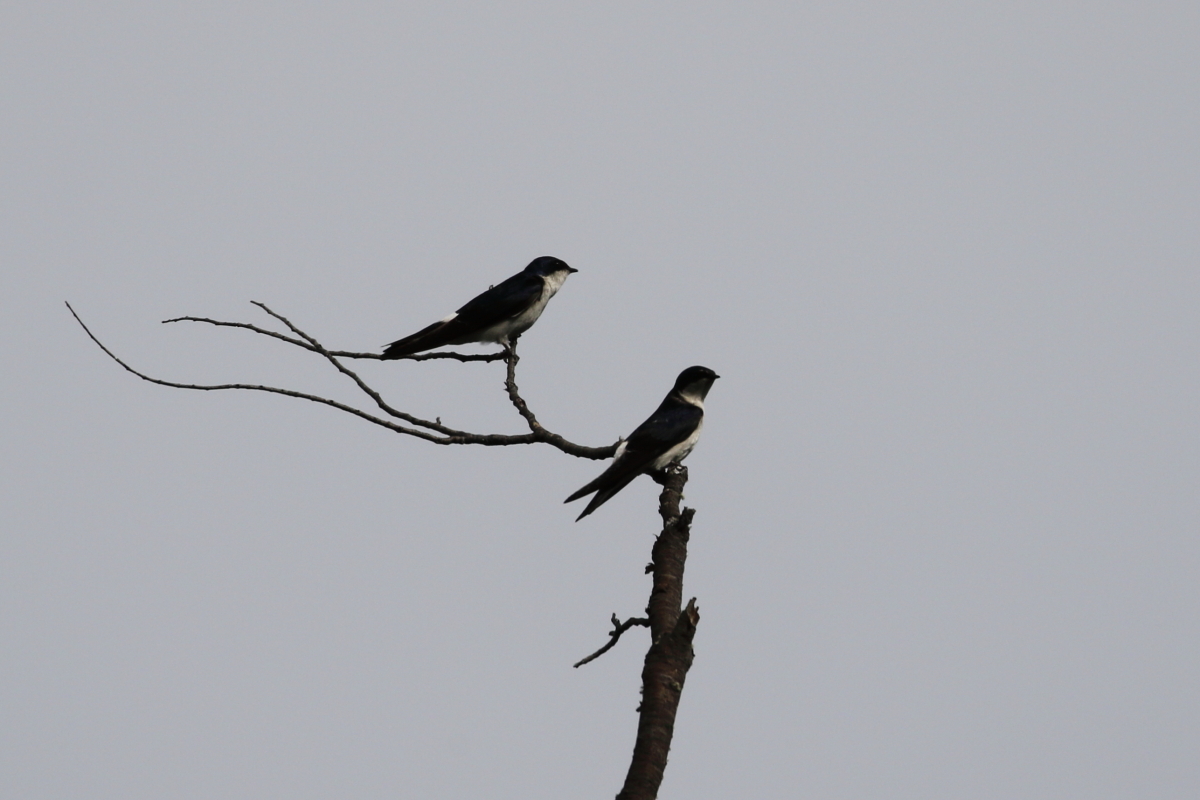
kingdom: Animalia
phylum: Chordata
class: Aves
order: Passeriformes
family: Hirundinidae
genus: Tachycineta
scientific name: Tachycineta leucopyga
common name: Chilean swallow
